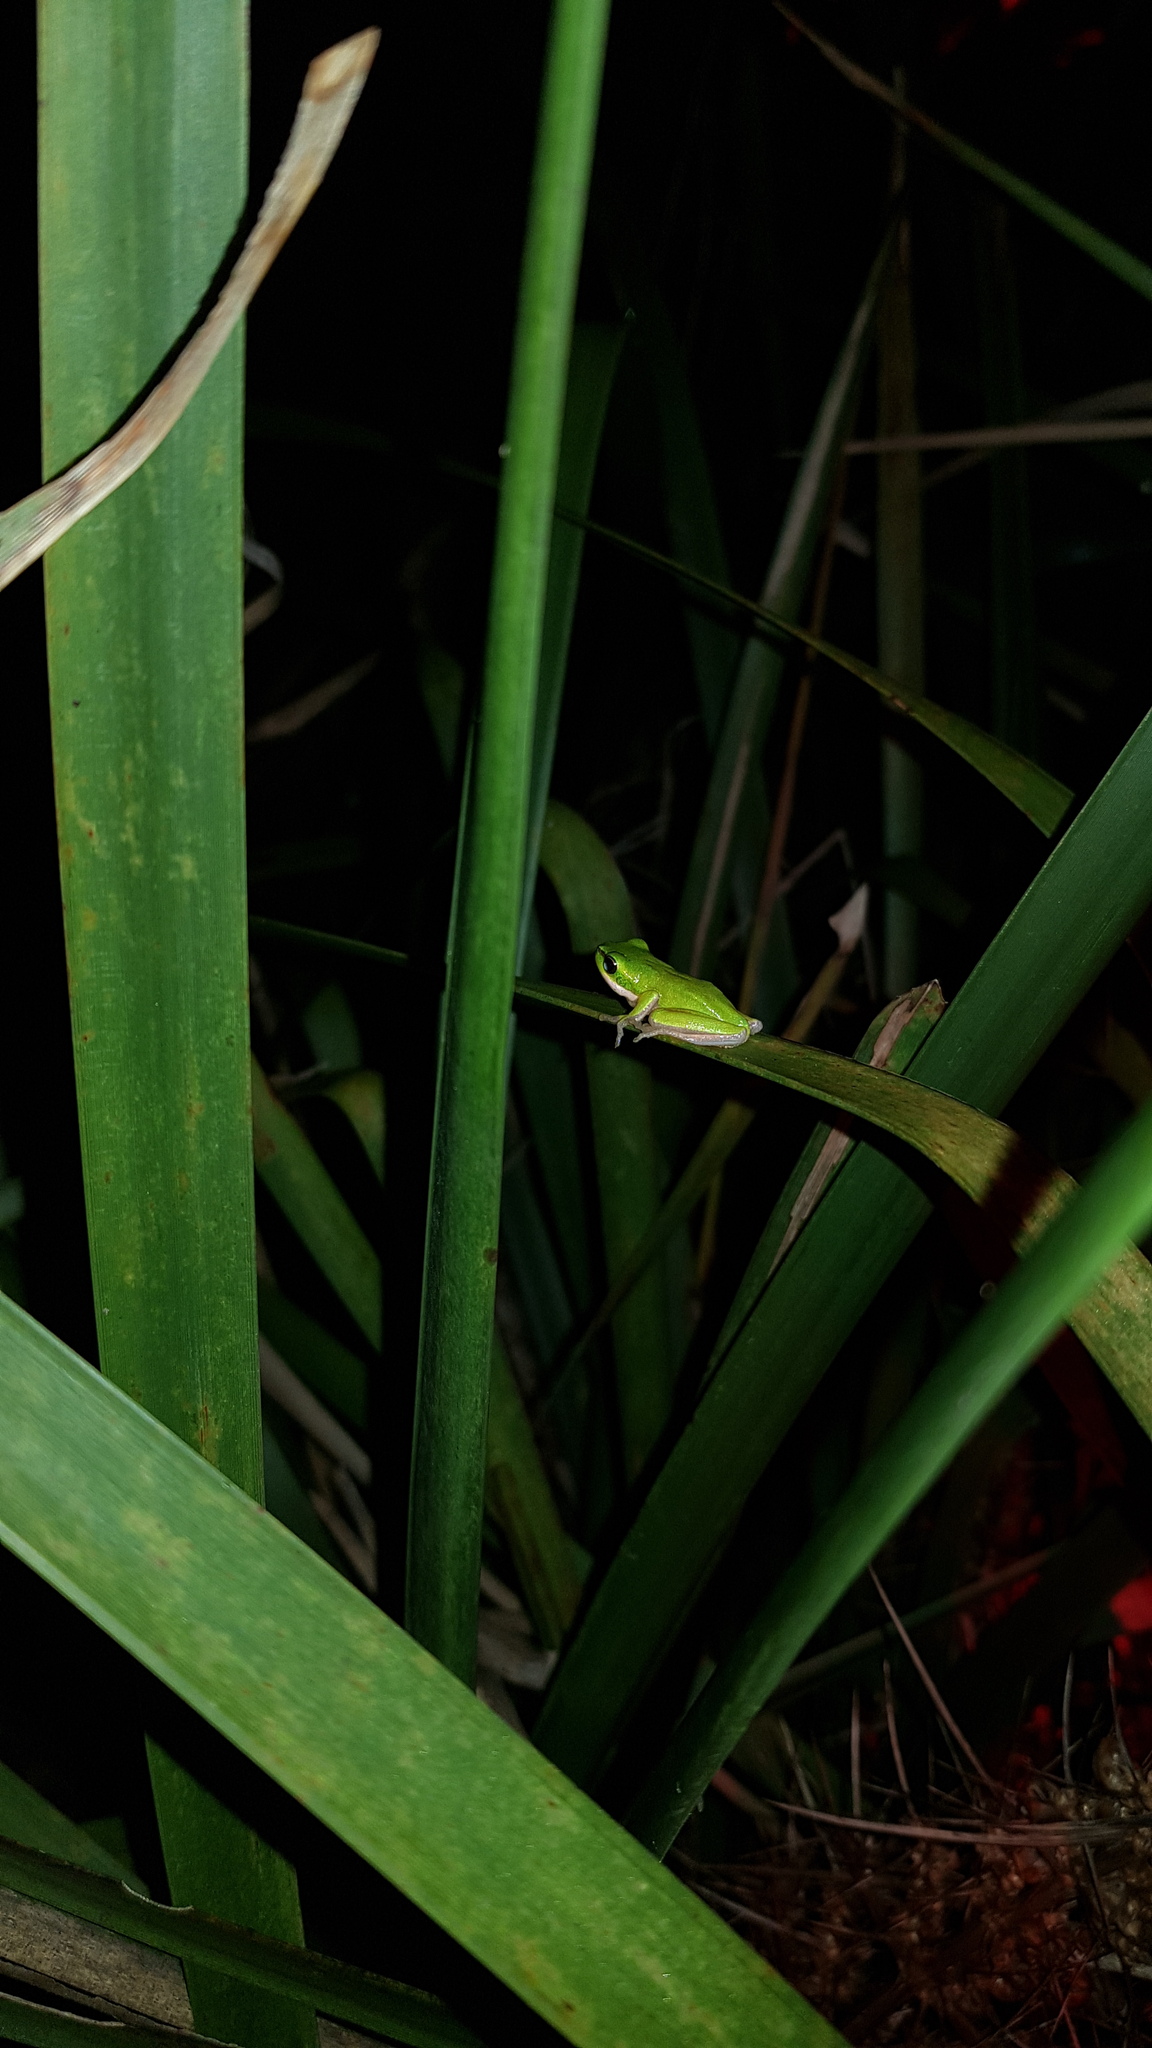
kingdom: Animalia
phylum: Chordata
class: Amphibia
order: Anura
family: Pelodryadidae
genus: Litoria
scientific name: Litoria fallax
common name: Eastern dwarf treefrog
